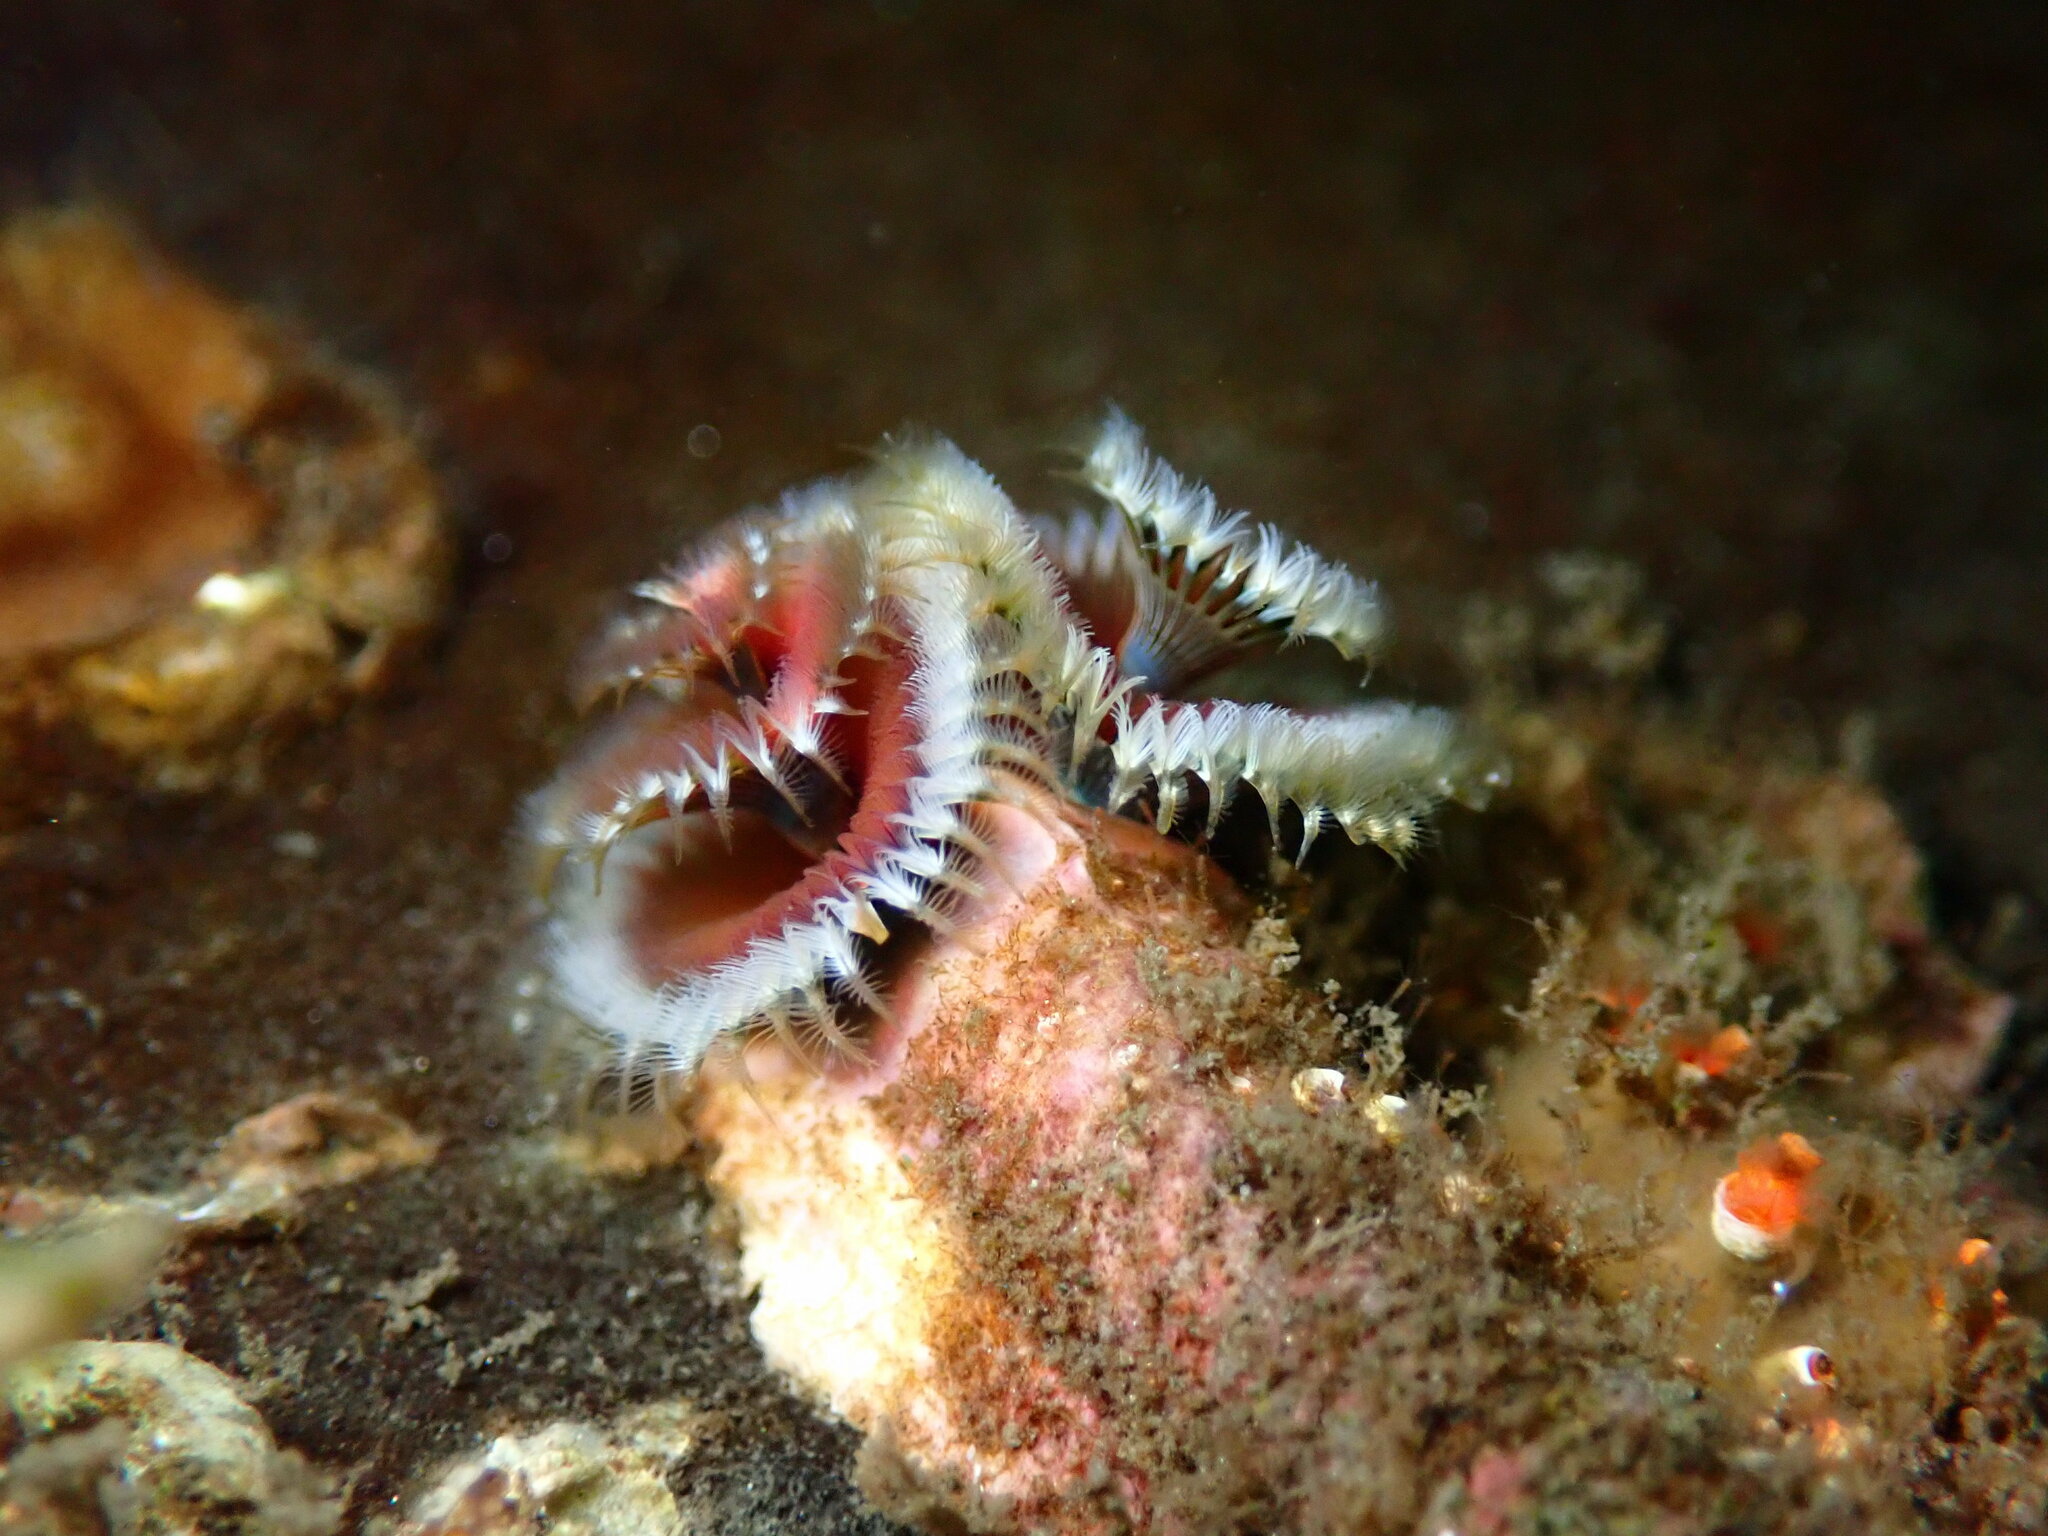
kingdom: Animalia
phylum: Annelida
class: Polychaeta
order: Sabellida
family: Serpulidae
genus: Spirobranchus
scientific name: Spirobranchus spinosus
